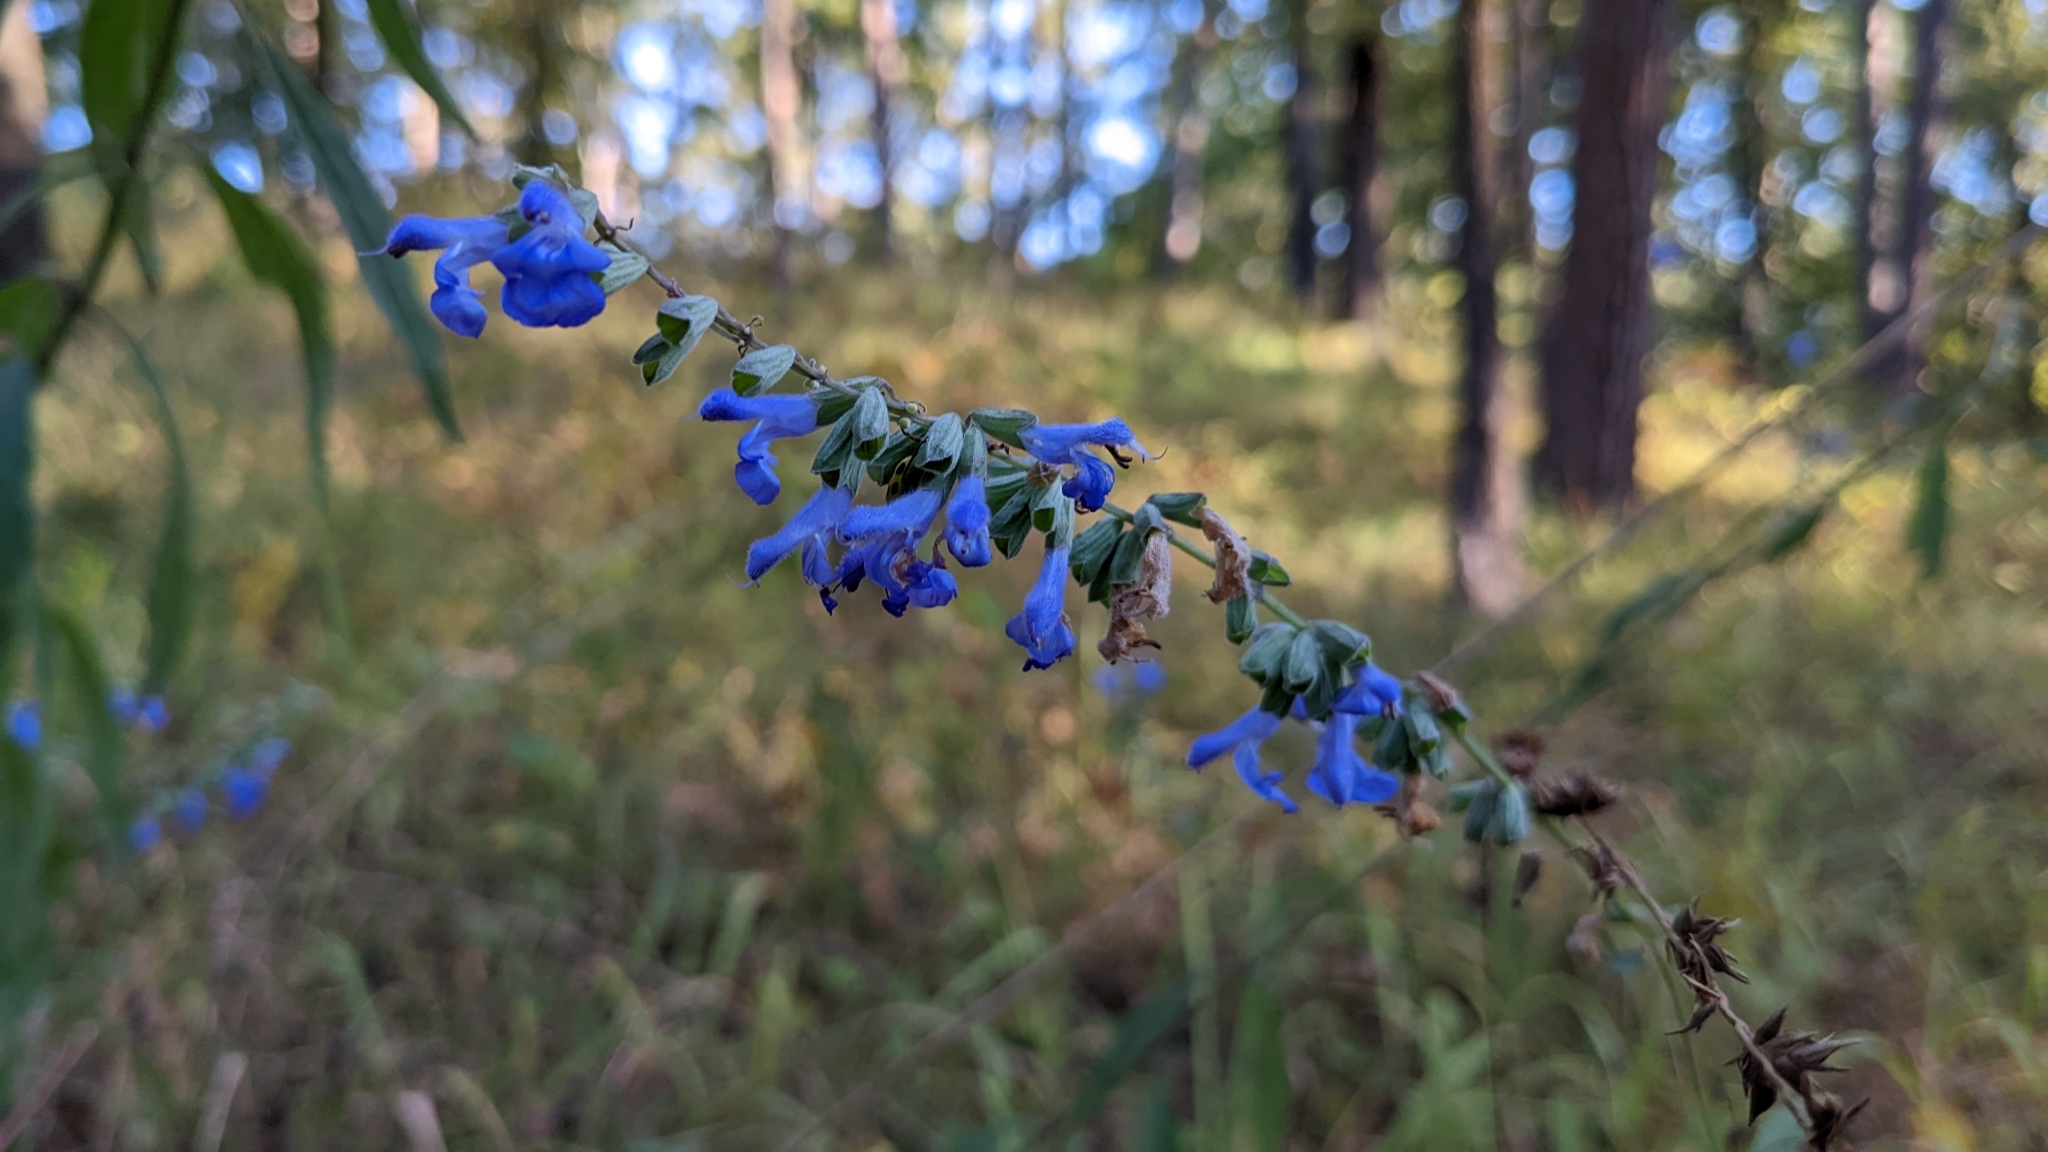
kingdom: Plantae
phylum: Tracheophyta
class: Magnoliopsida
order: Lamiales
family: Lamiaceae
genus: Salvia
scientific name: Salvia azurea
